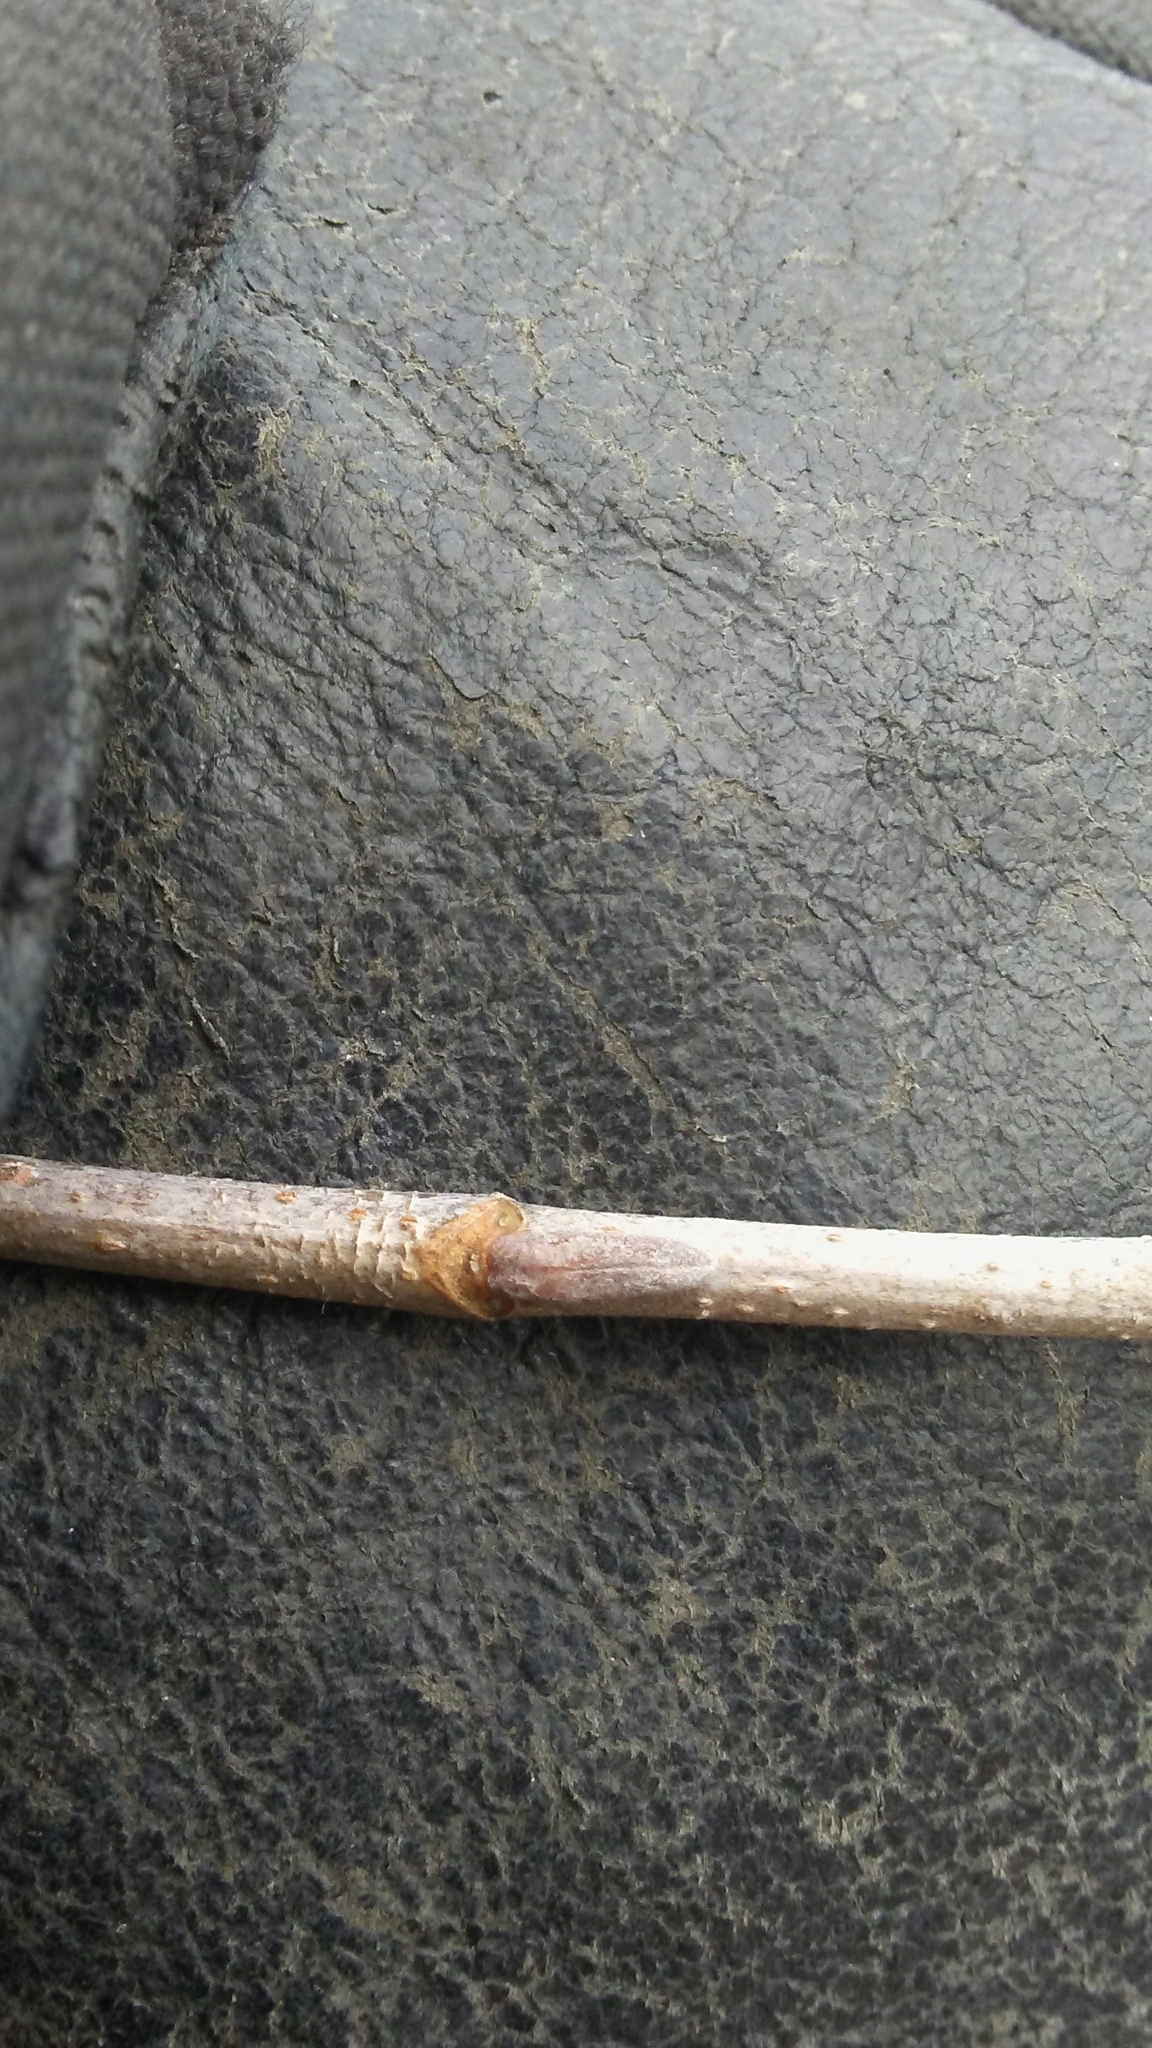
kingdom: Plantae
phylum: Tracheophyta
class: Magnoliopsida
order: Dipsacales
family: Viburnaceae
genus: Viburnum
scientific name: Viburnum lentago
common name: Black haw
